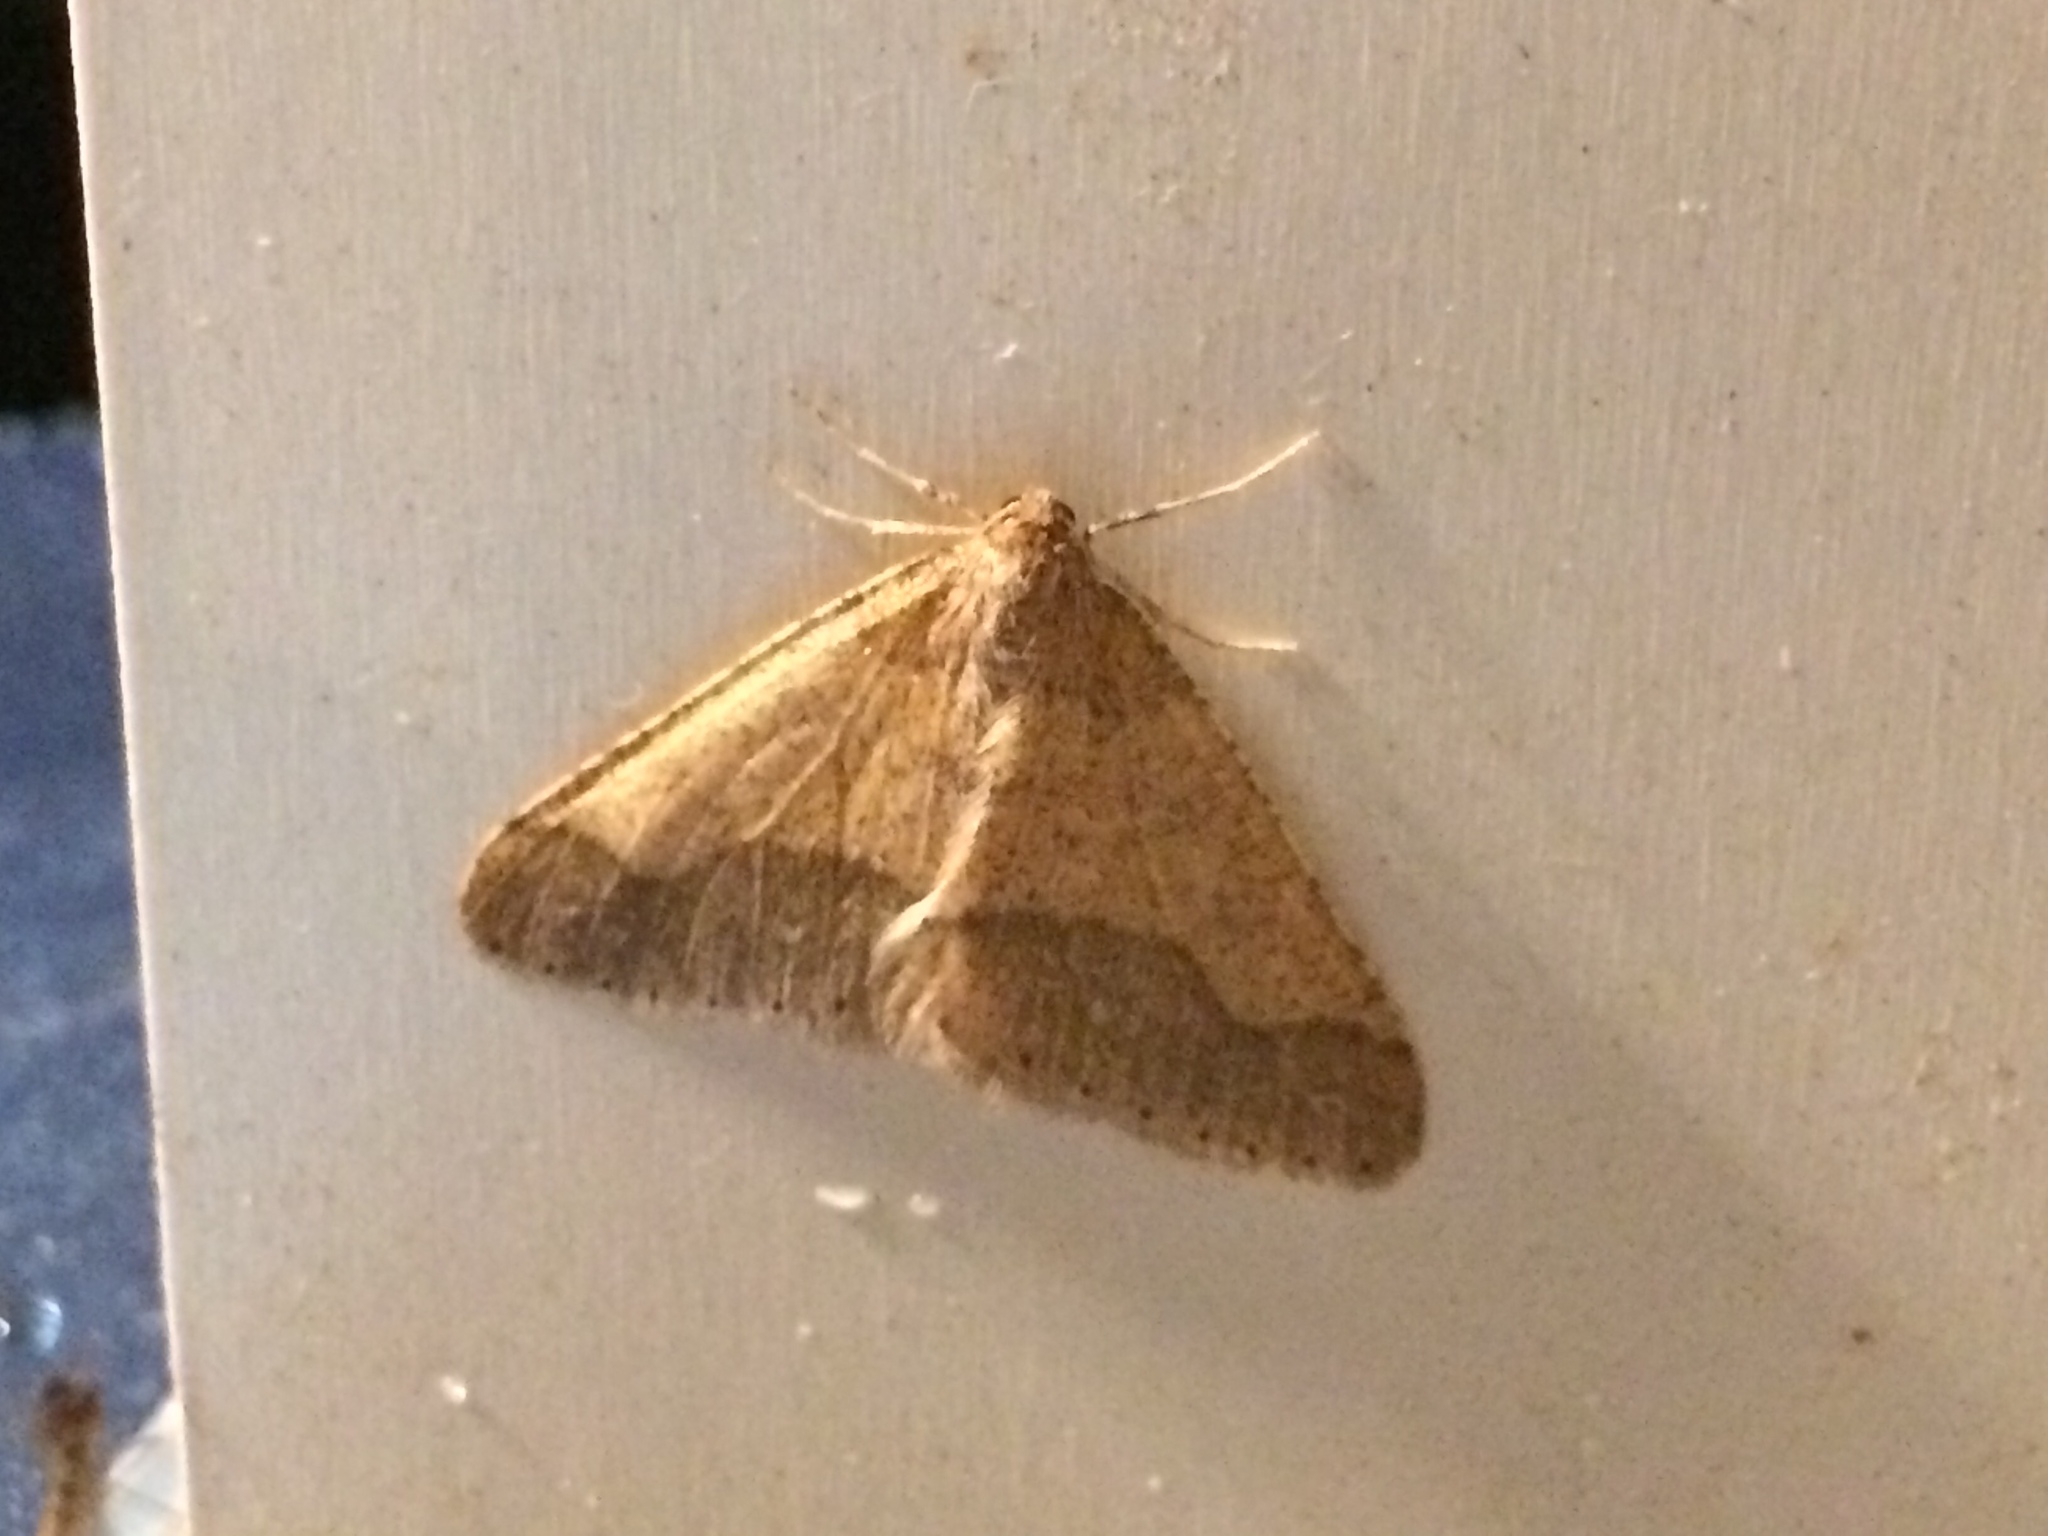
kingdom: Animalia
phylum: Arthropoda
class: Insecta
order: Lepidoptera
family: Geometridae
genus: Agriopis
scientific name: Agriopis marginaria
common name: Dotted border
